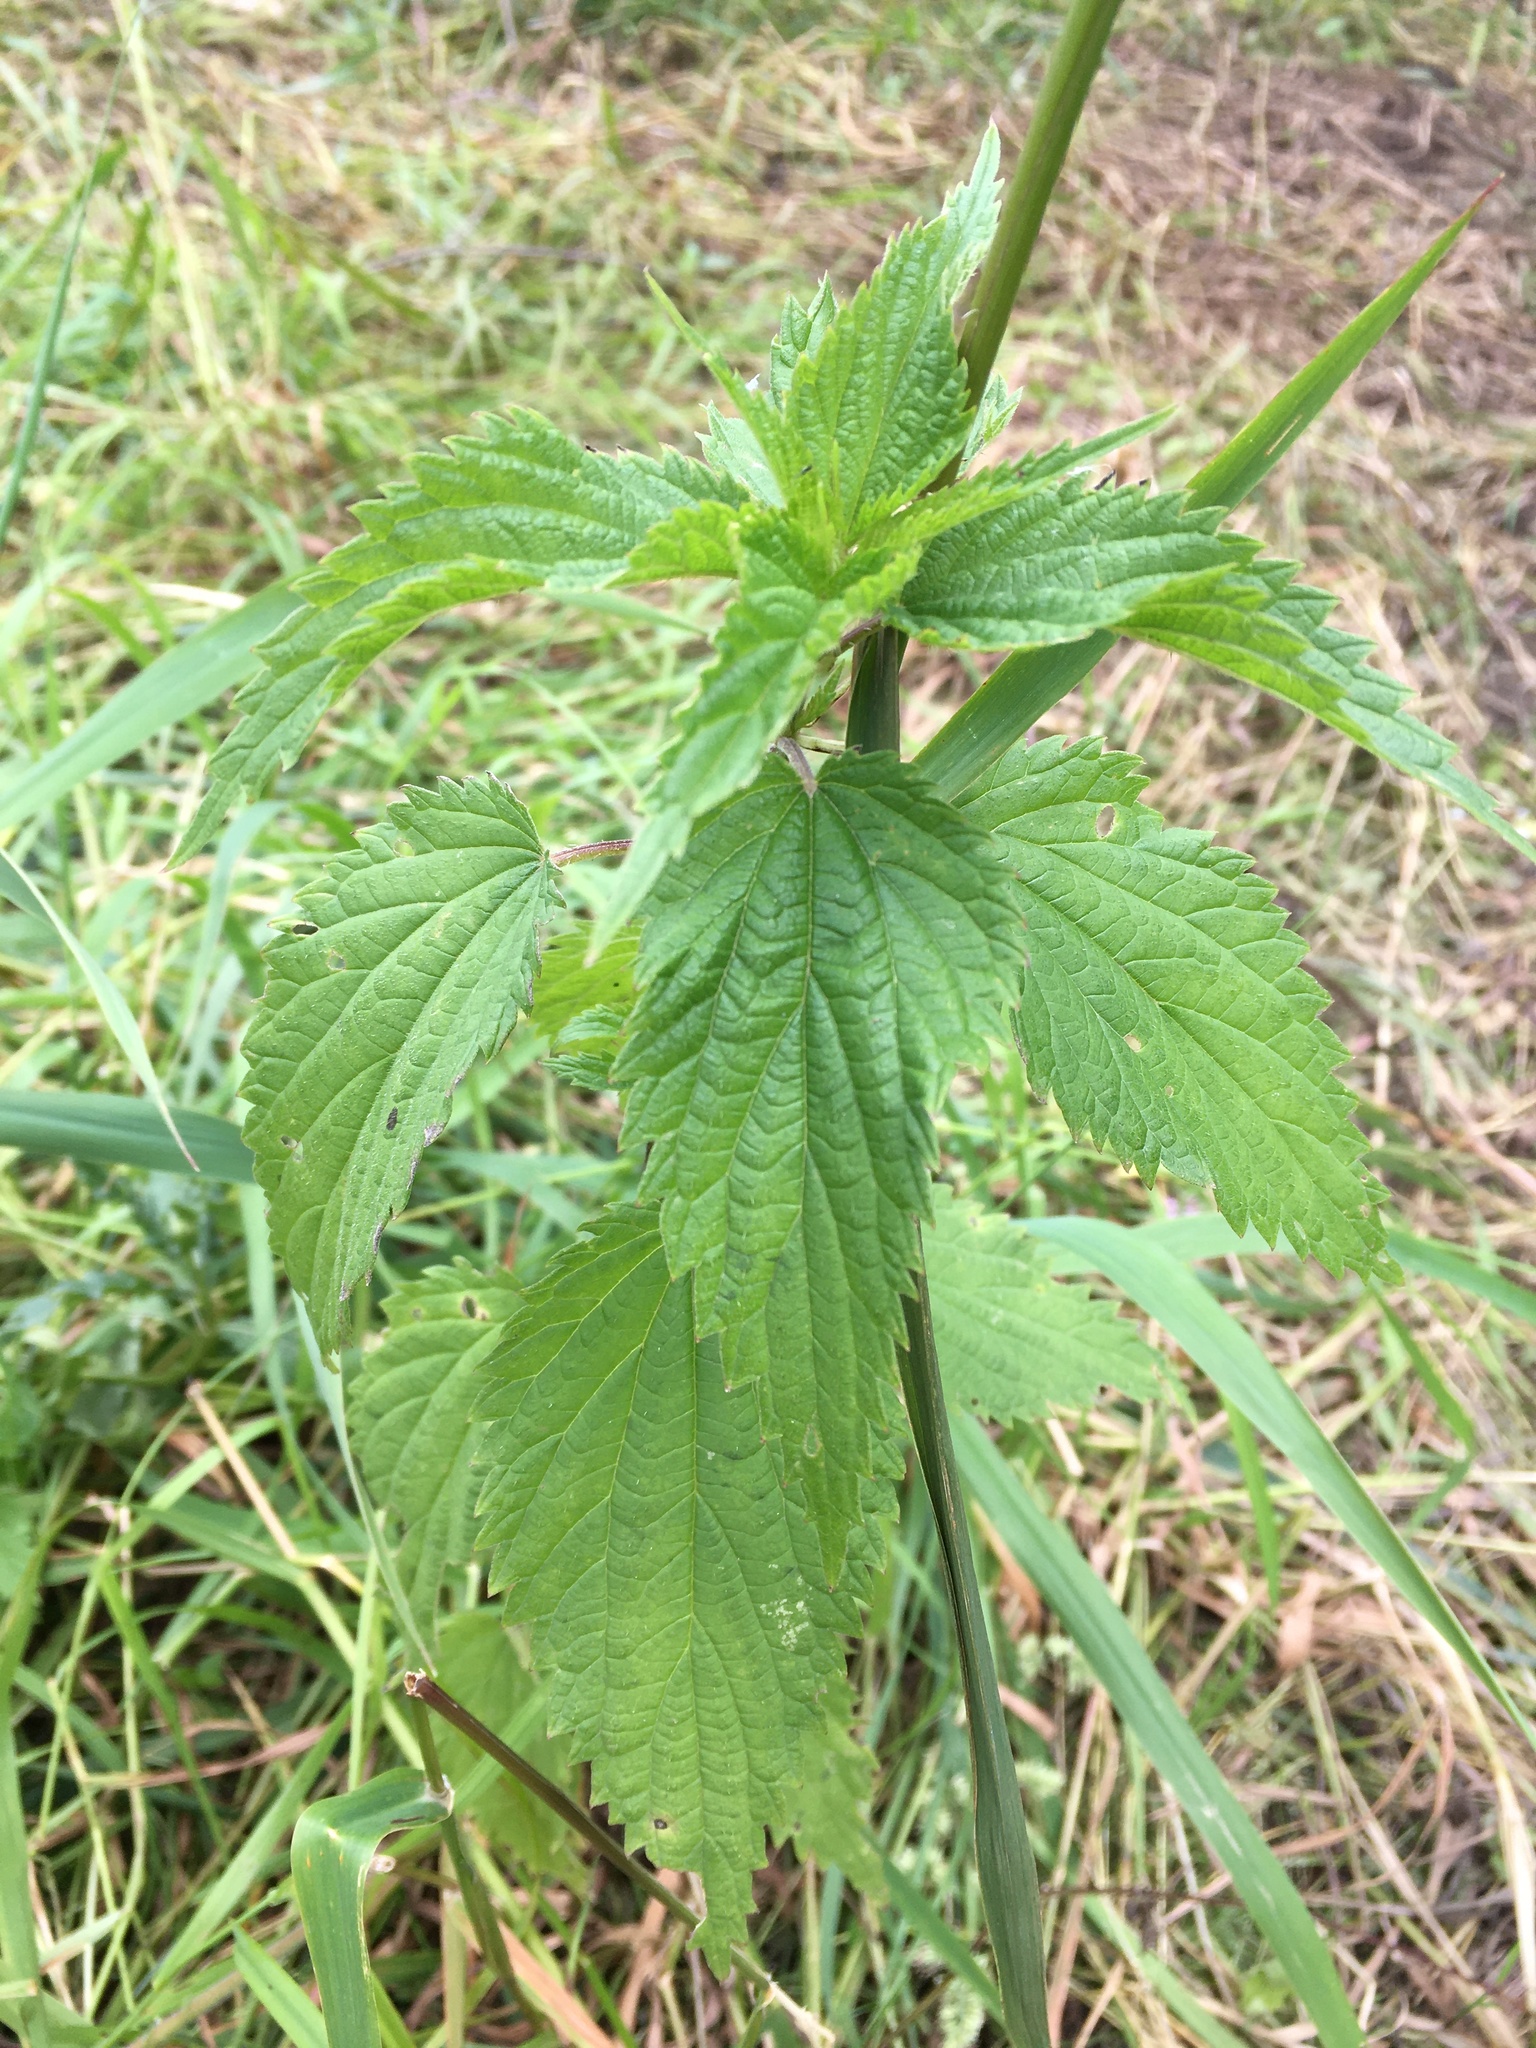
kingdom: Plantae
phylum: Tracheophyta
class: Magnoliopsida
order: Rosales
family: Urticaceae
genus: Urtica
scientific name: Urtica dioica
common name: Common nettle
